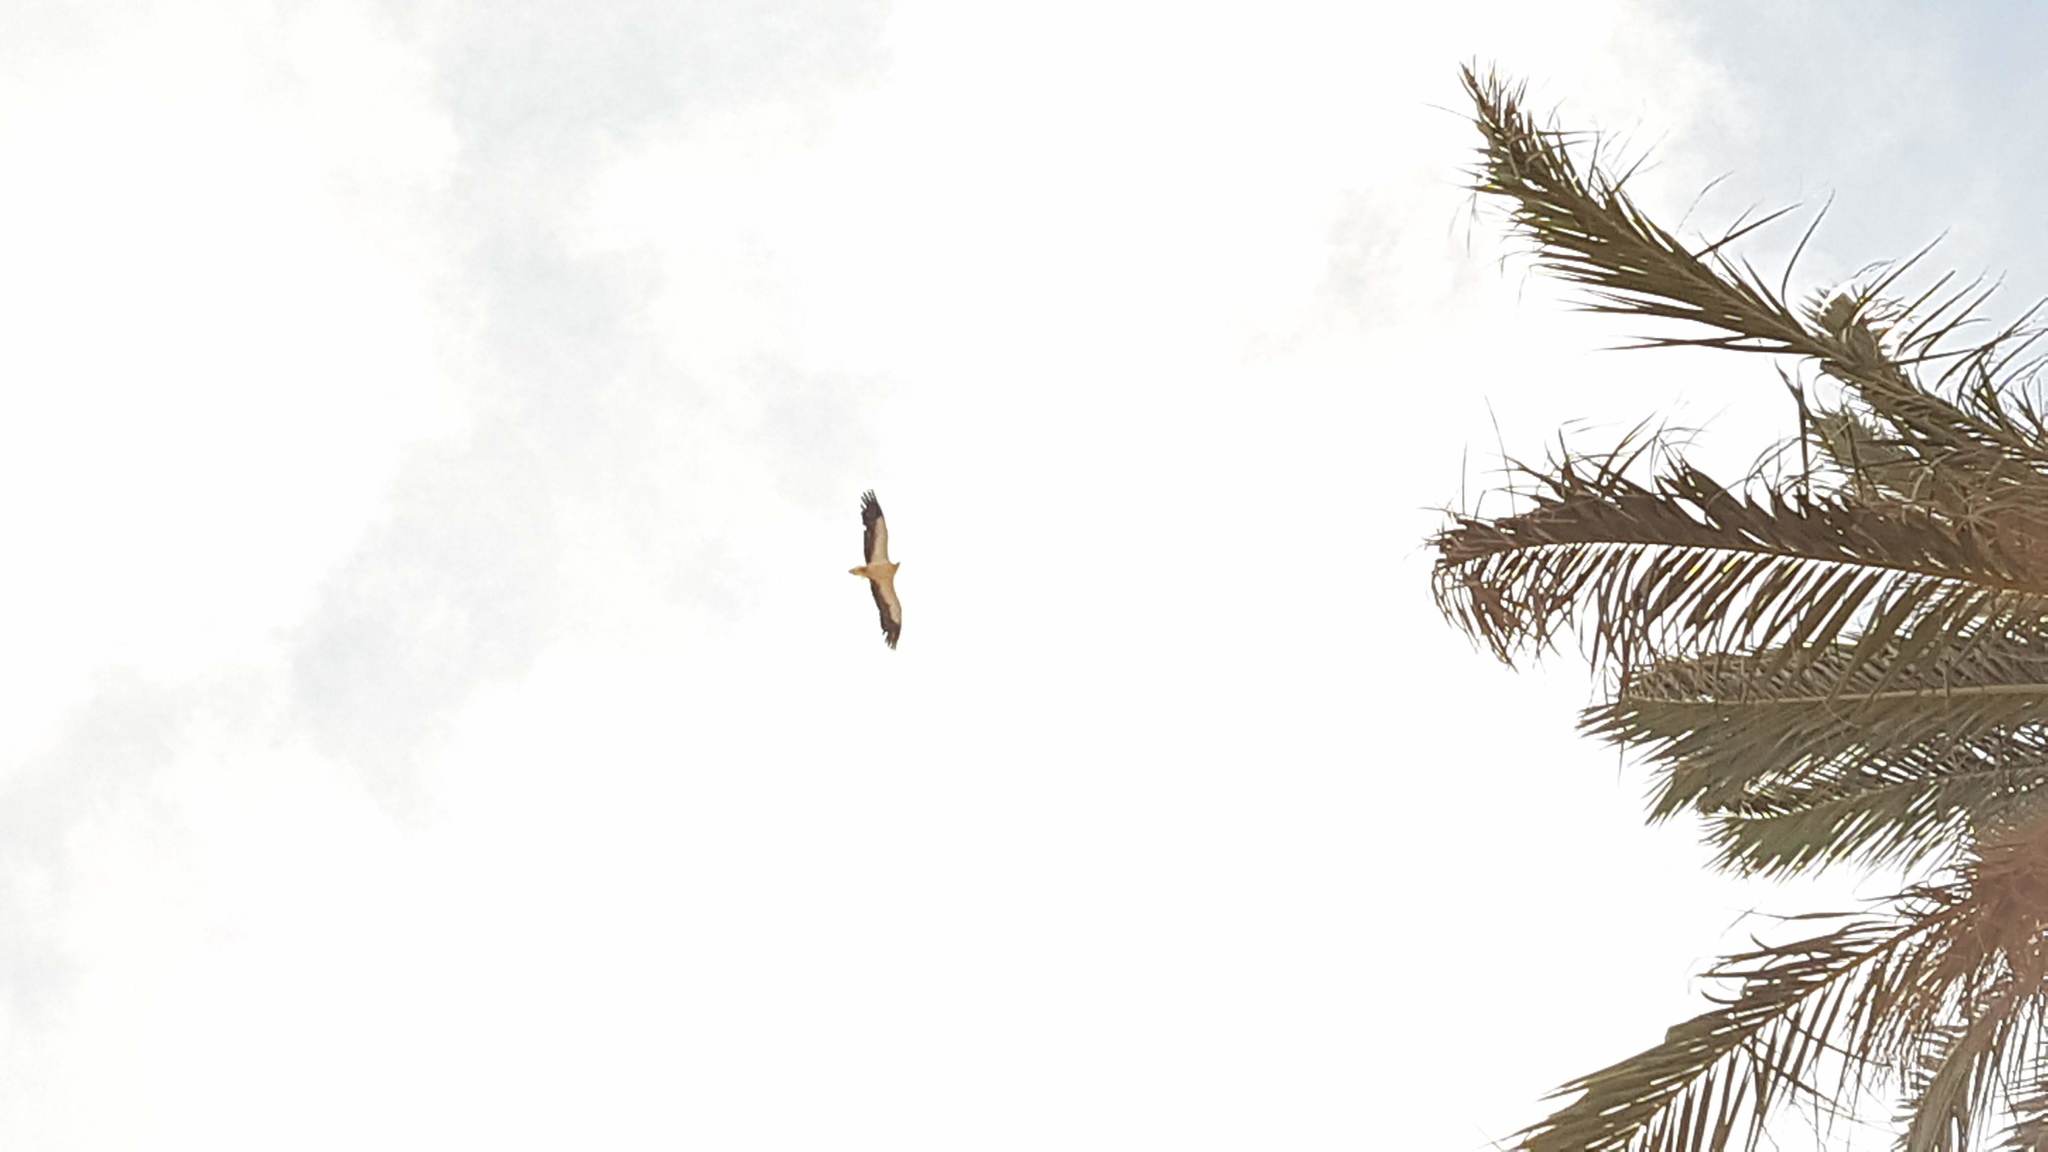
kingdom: Animalia
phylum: Chordata
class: Aves
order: Accipitriformes
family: Accipitridae
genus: Neophron
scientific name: Neophron percnopterus
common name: Egyptian vulture
